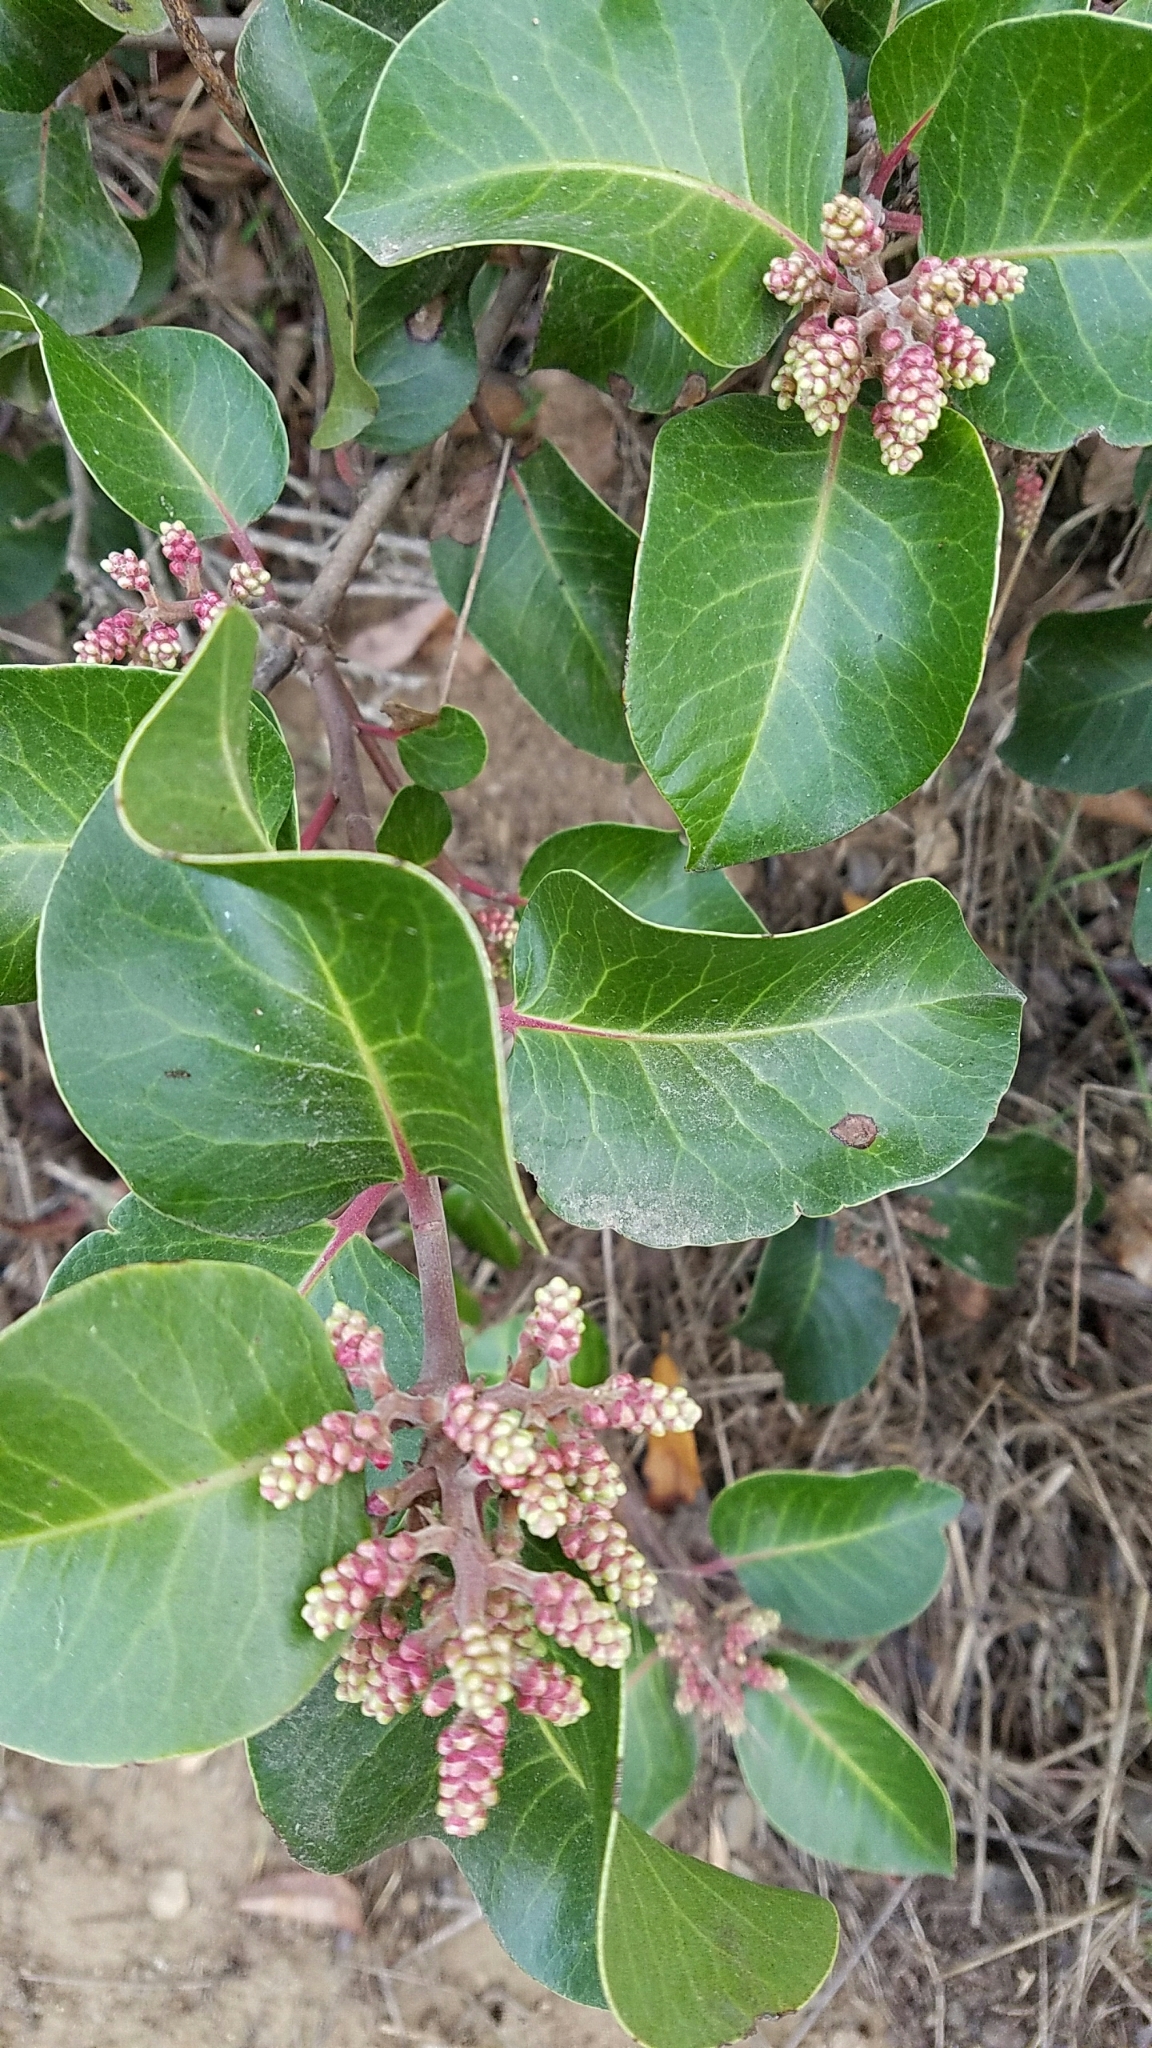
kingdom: Plantae
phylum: Tracheophyta
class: Magnoliopsida
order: Sapindales
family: Anacardiaceae
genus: Rhus
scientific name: Rhus ovata
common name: Sugar sumac
